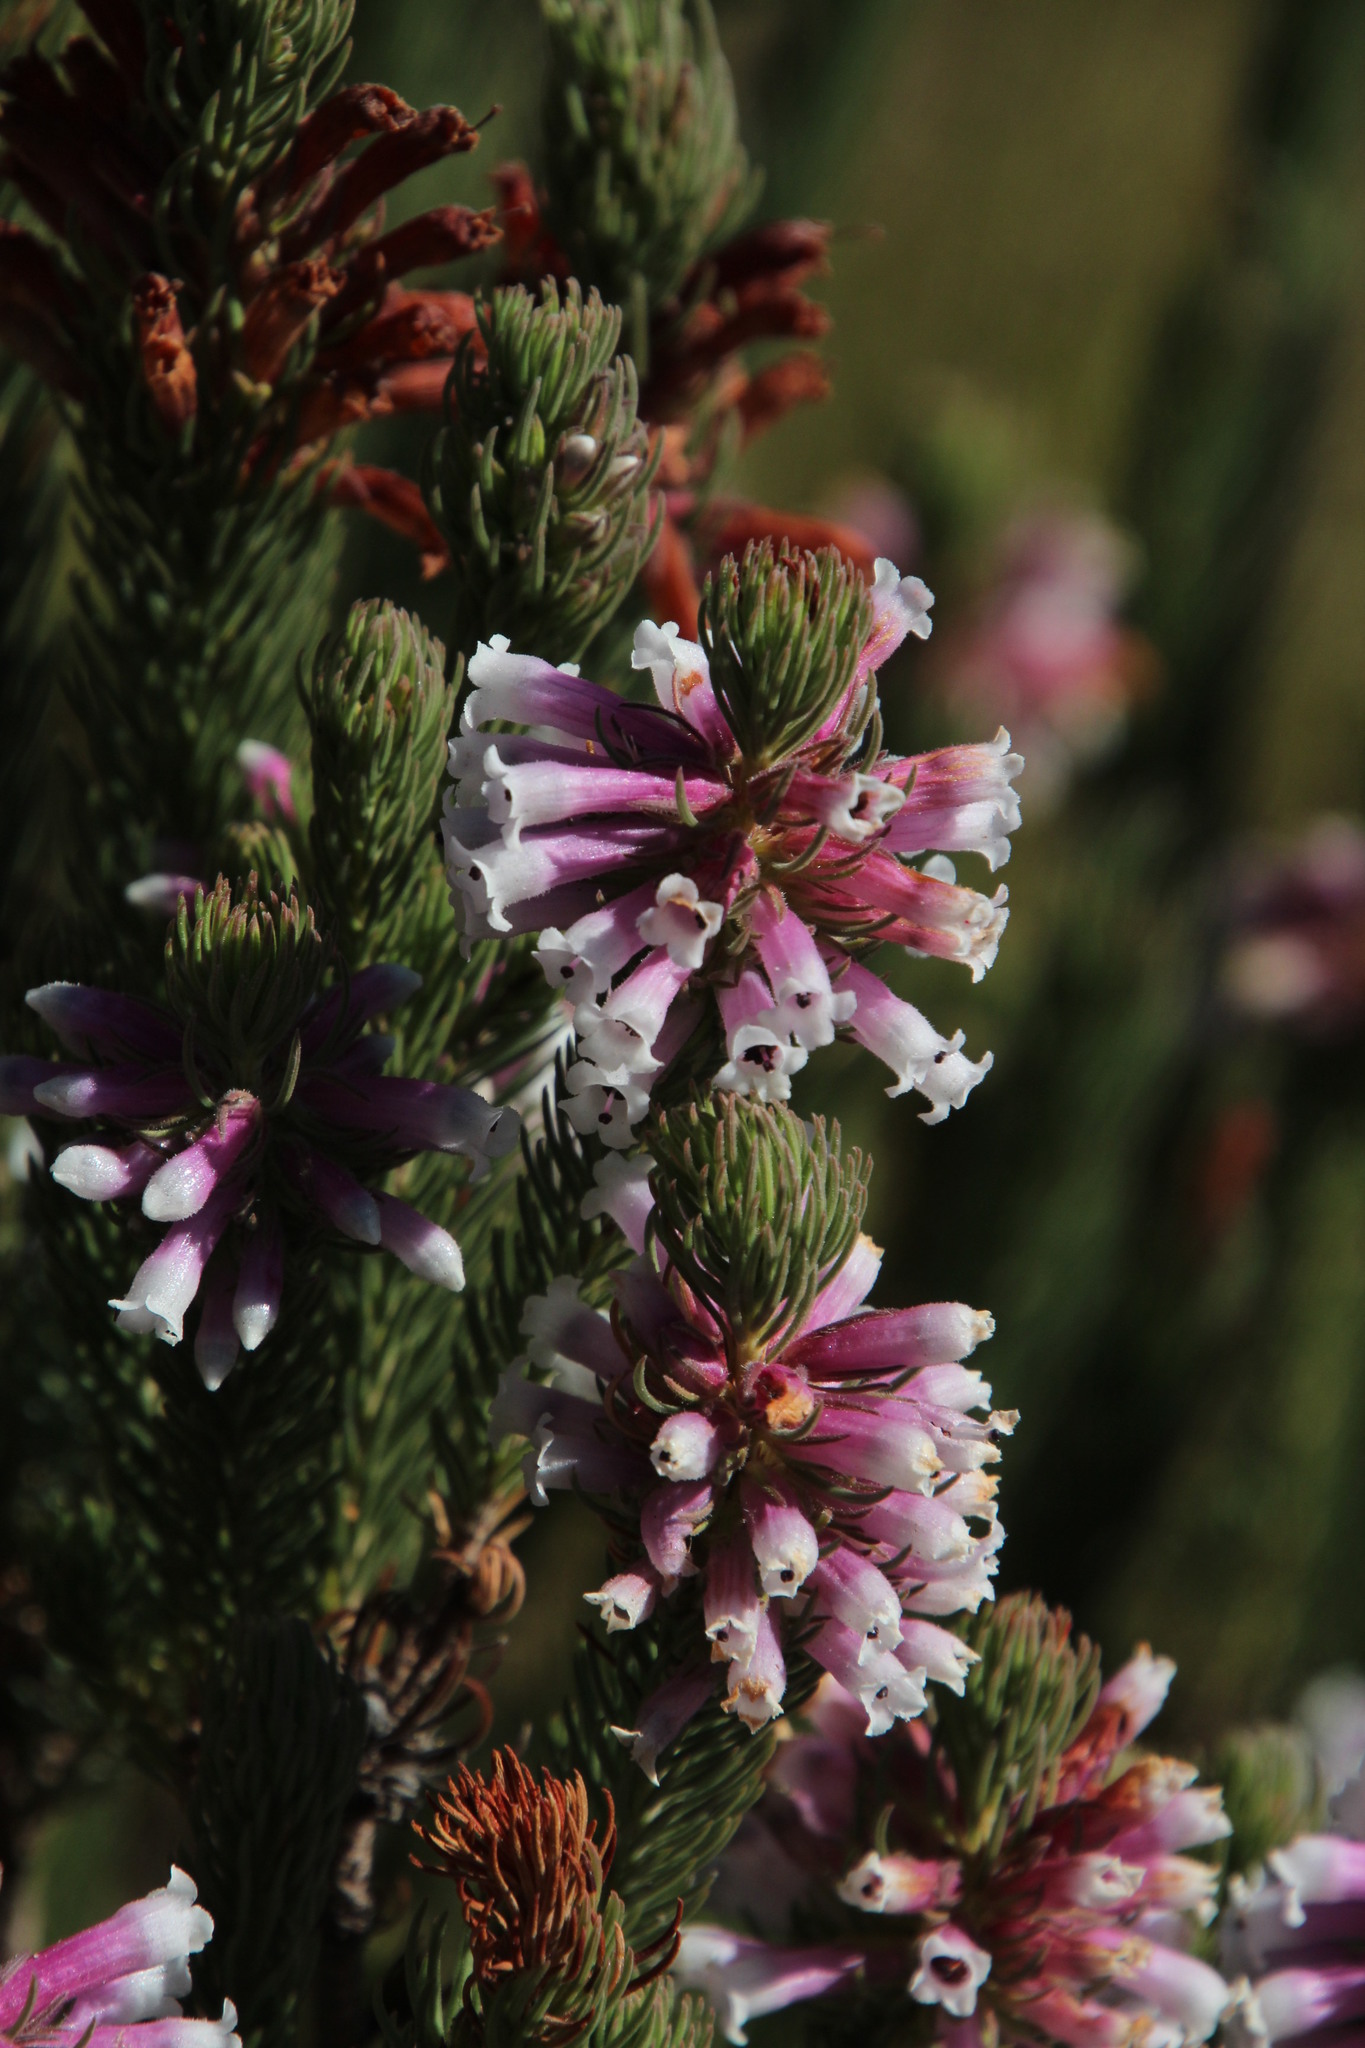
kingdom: Plantae
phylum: Tracheophyta
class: Magnoliopsida
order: Ericales
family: Ericaceae
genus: Erica
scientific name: Erica viscaria
